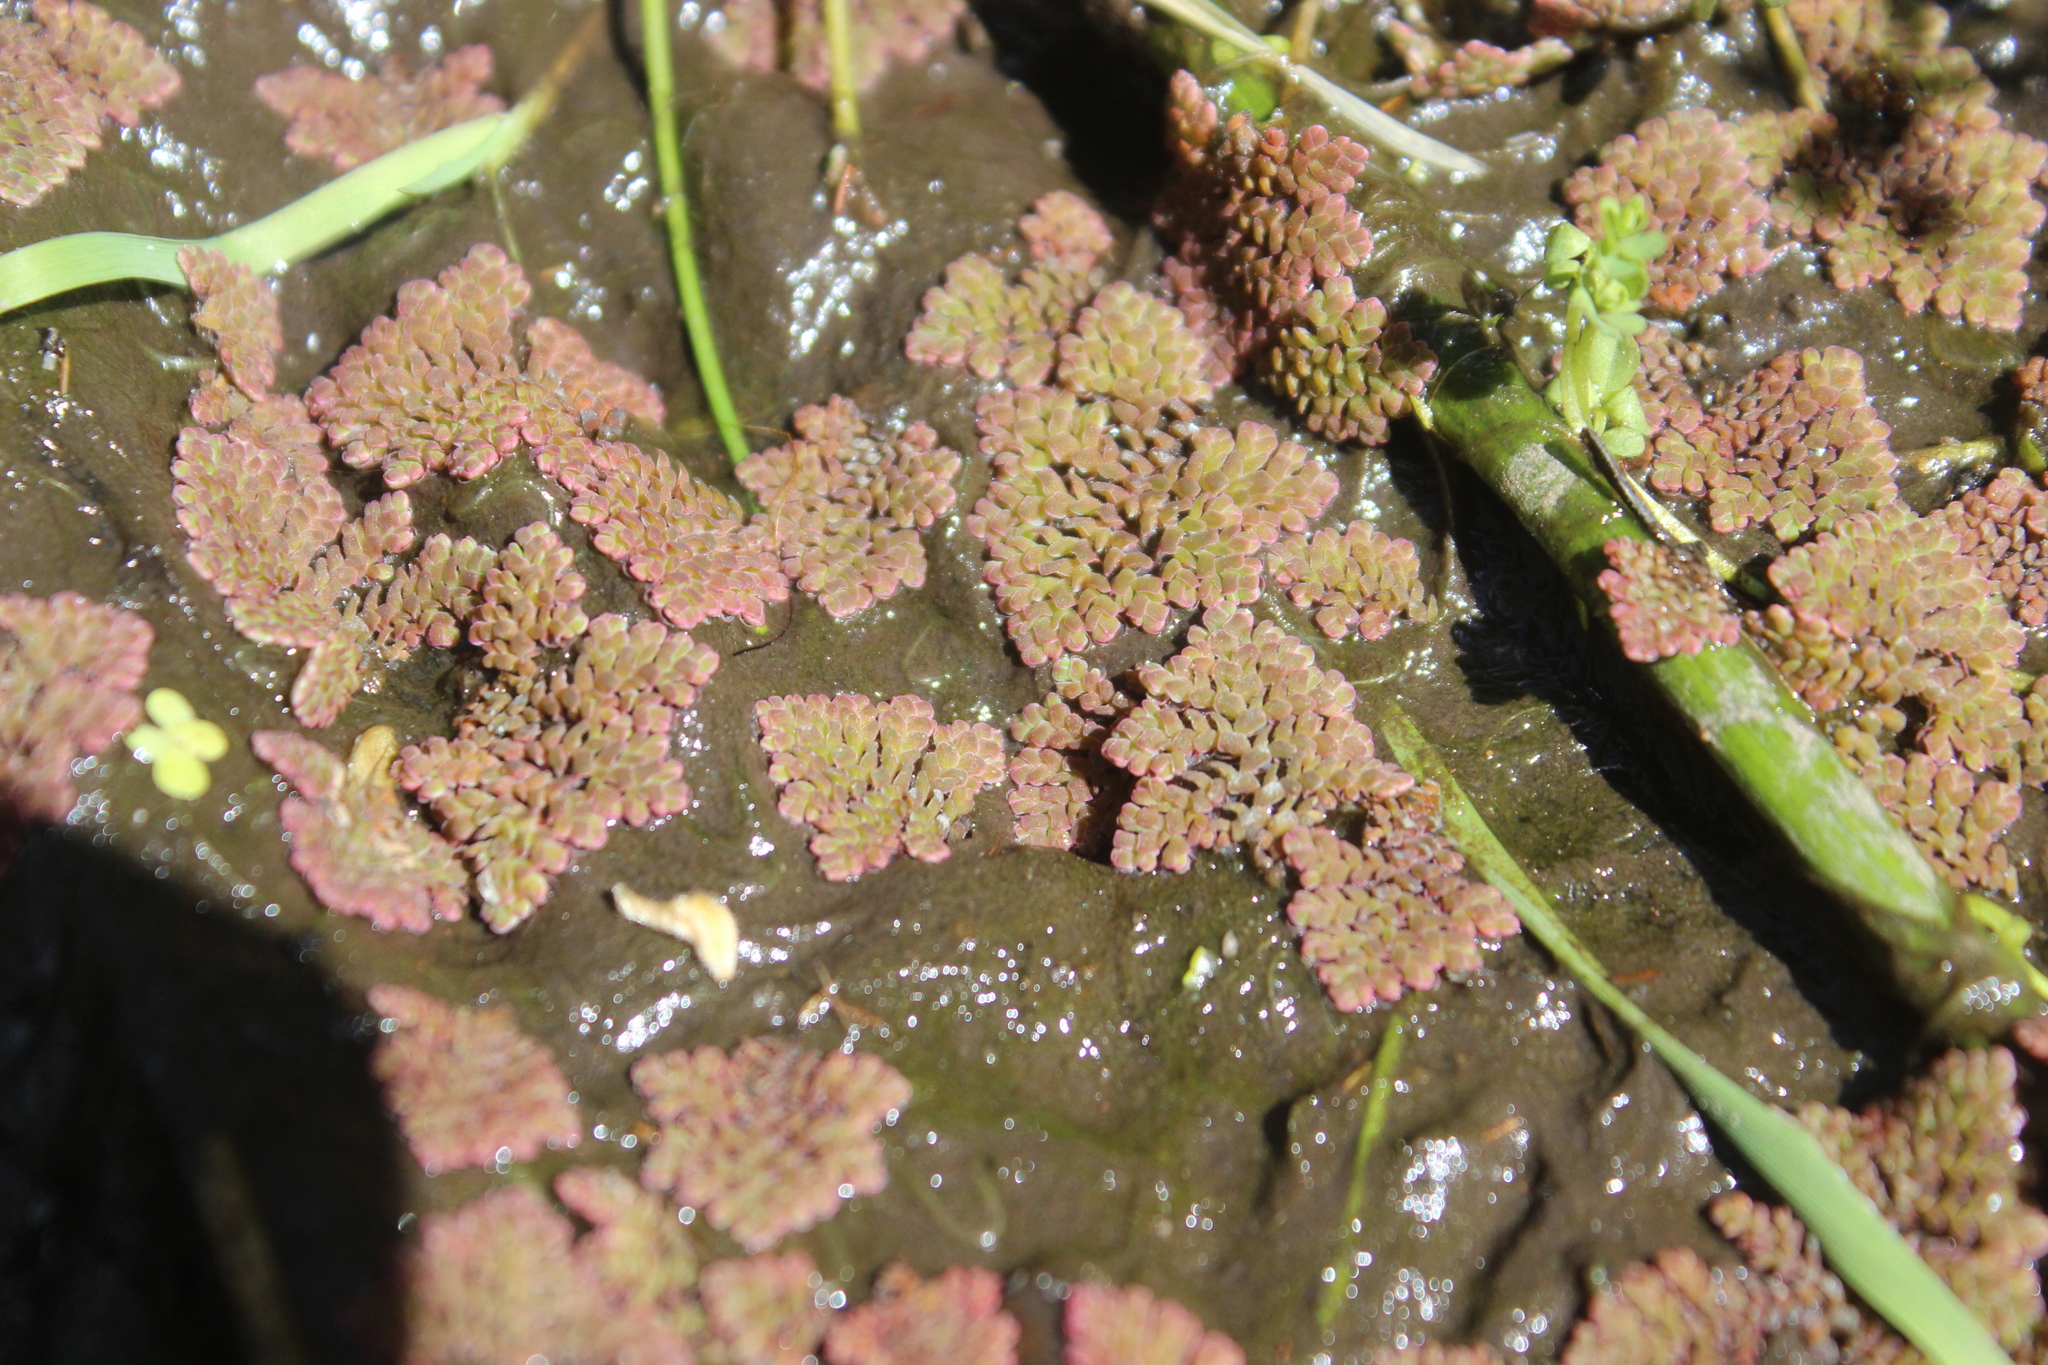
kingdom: Plantae
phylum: Tracheophyta
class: Polypodiopsida
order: Salviniales
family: Salviniaceae
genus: Azolla
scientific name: Azolla pinnata
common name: Ferny azolla
